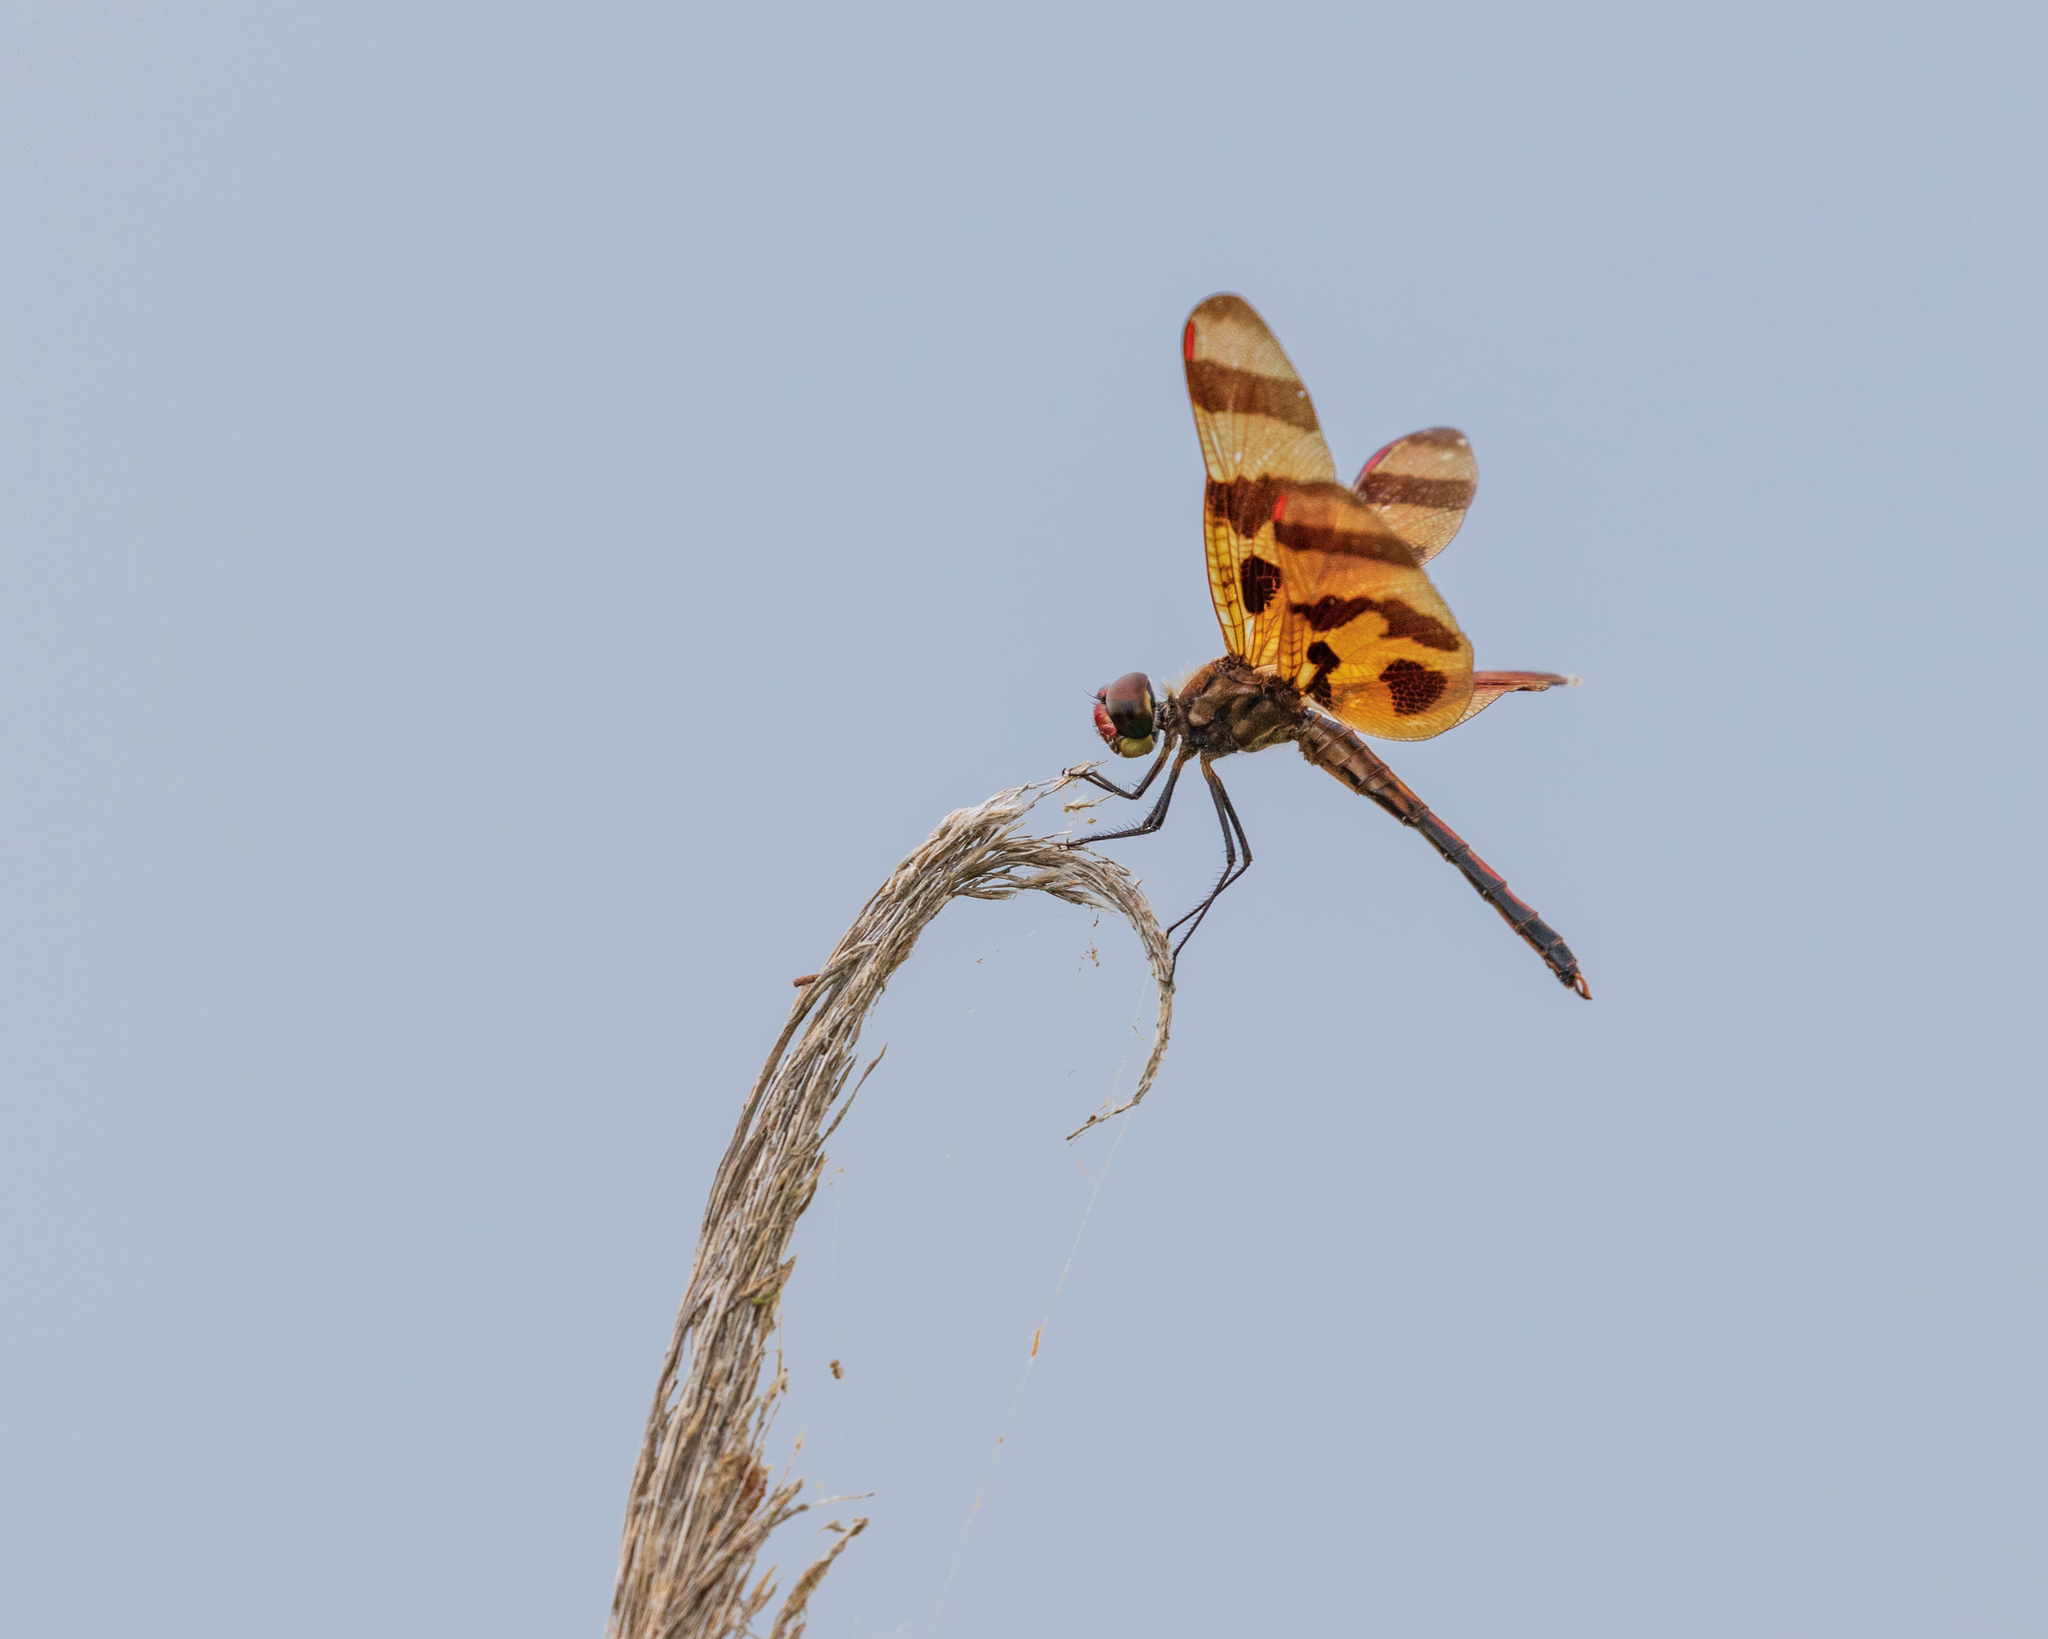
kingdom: Animalia
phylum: Arthropoda
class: Insecta
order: Odonata
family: Libellulidae
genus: Celithemis
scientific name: Celithemis eponina
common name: Halloween pennant
